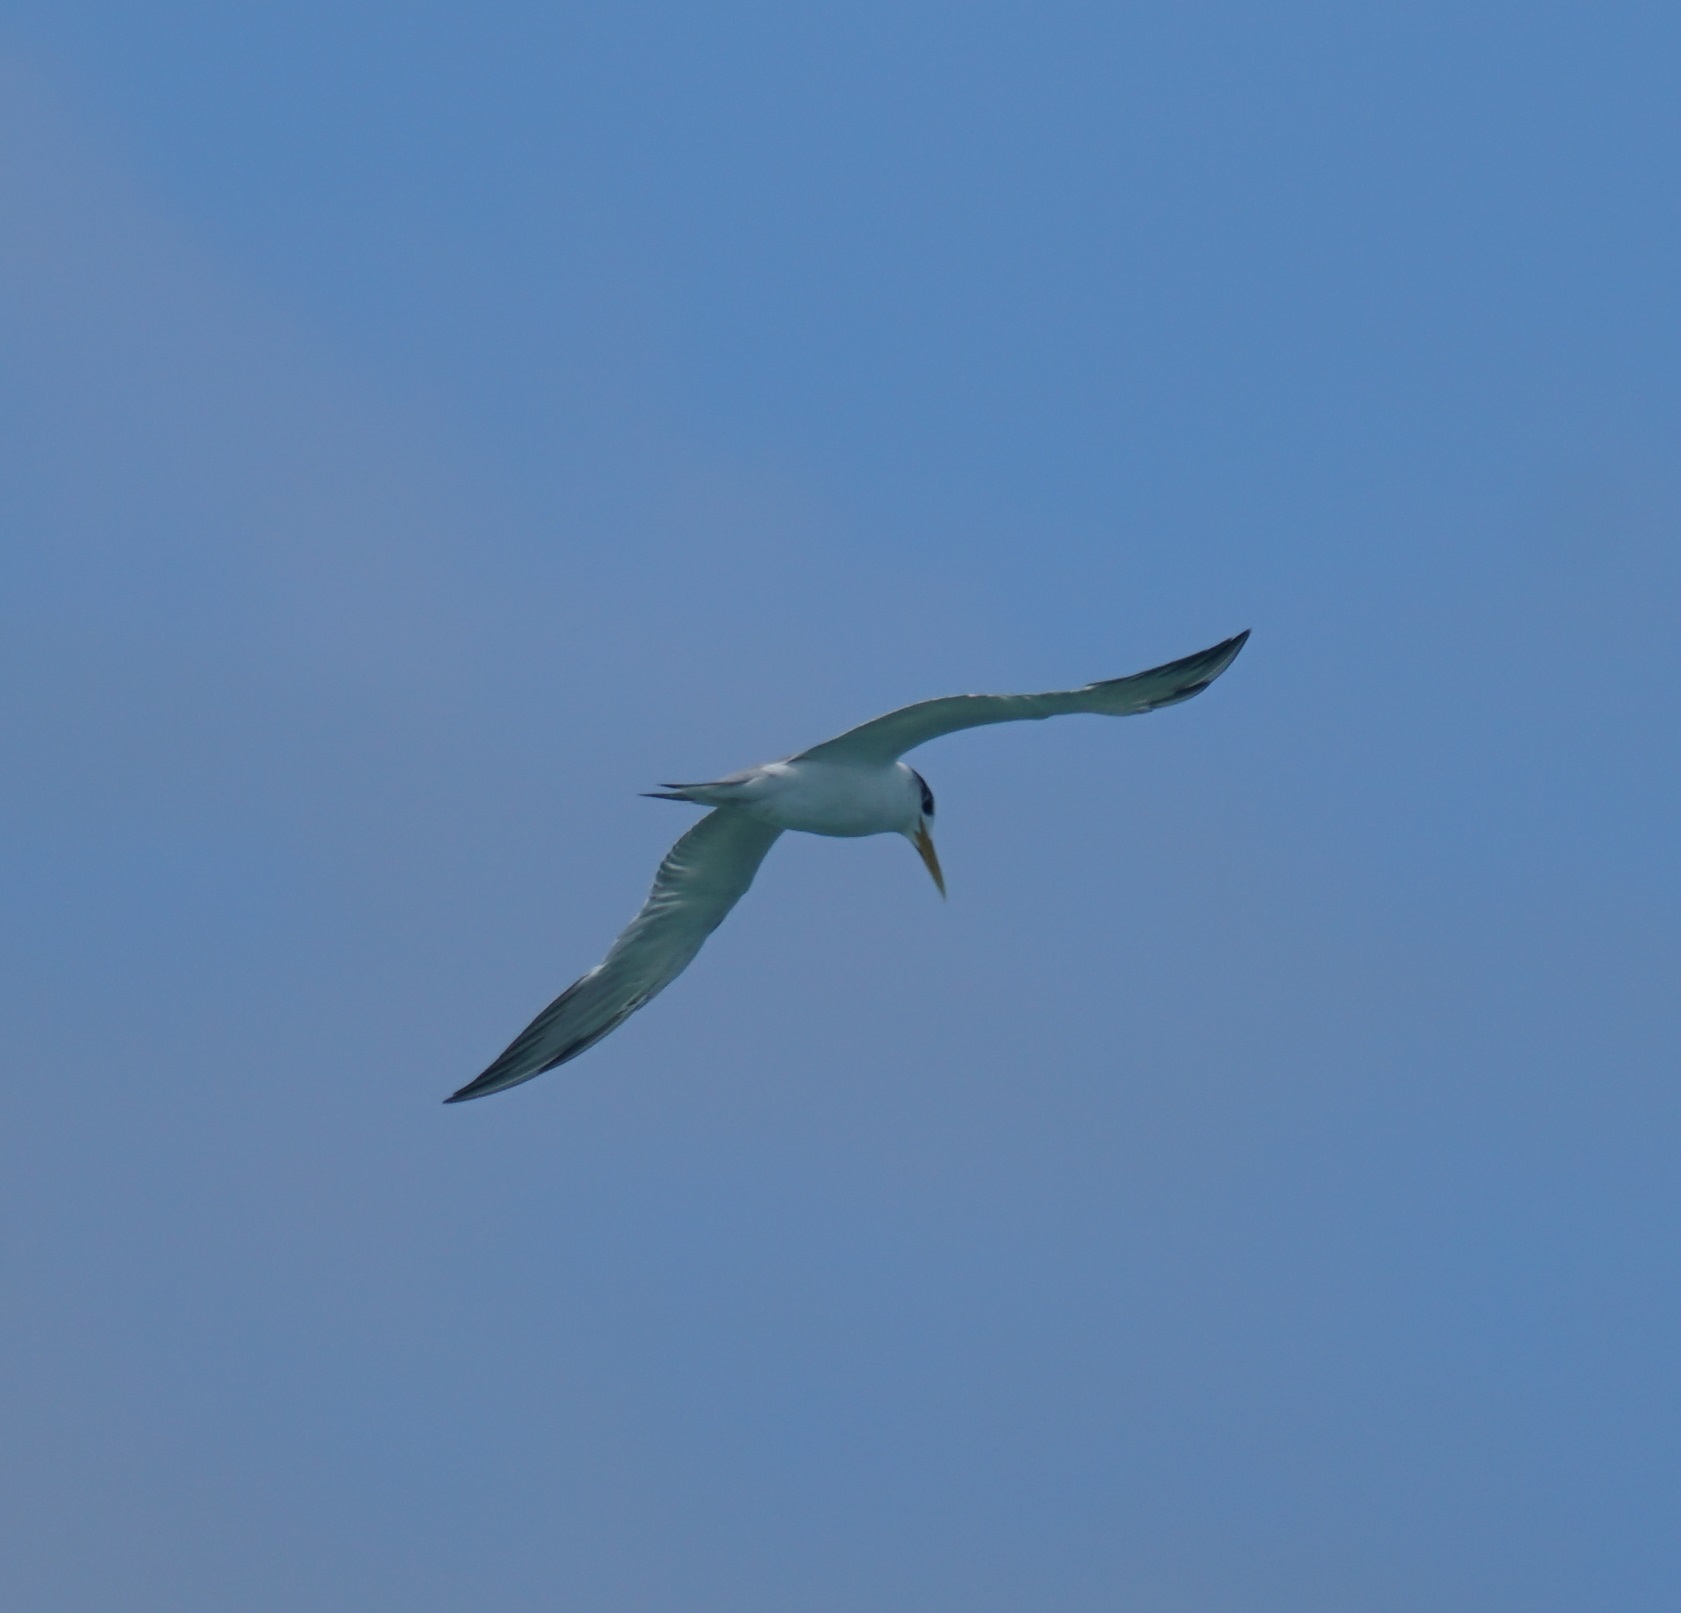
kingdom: Animalia
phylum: Chordata
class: Aves
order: Charadriiformes
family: Laridae
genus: Thalasseus
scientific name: Thalasseus bergii
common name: Greater crested tern
